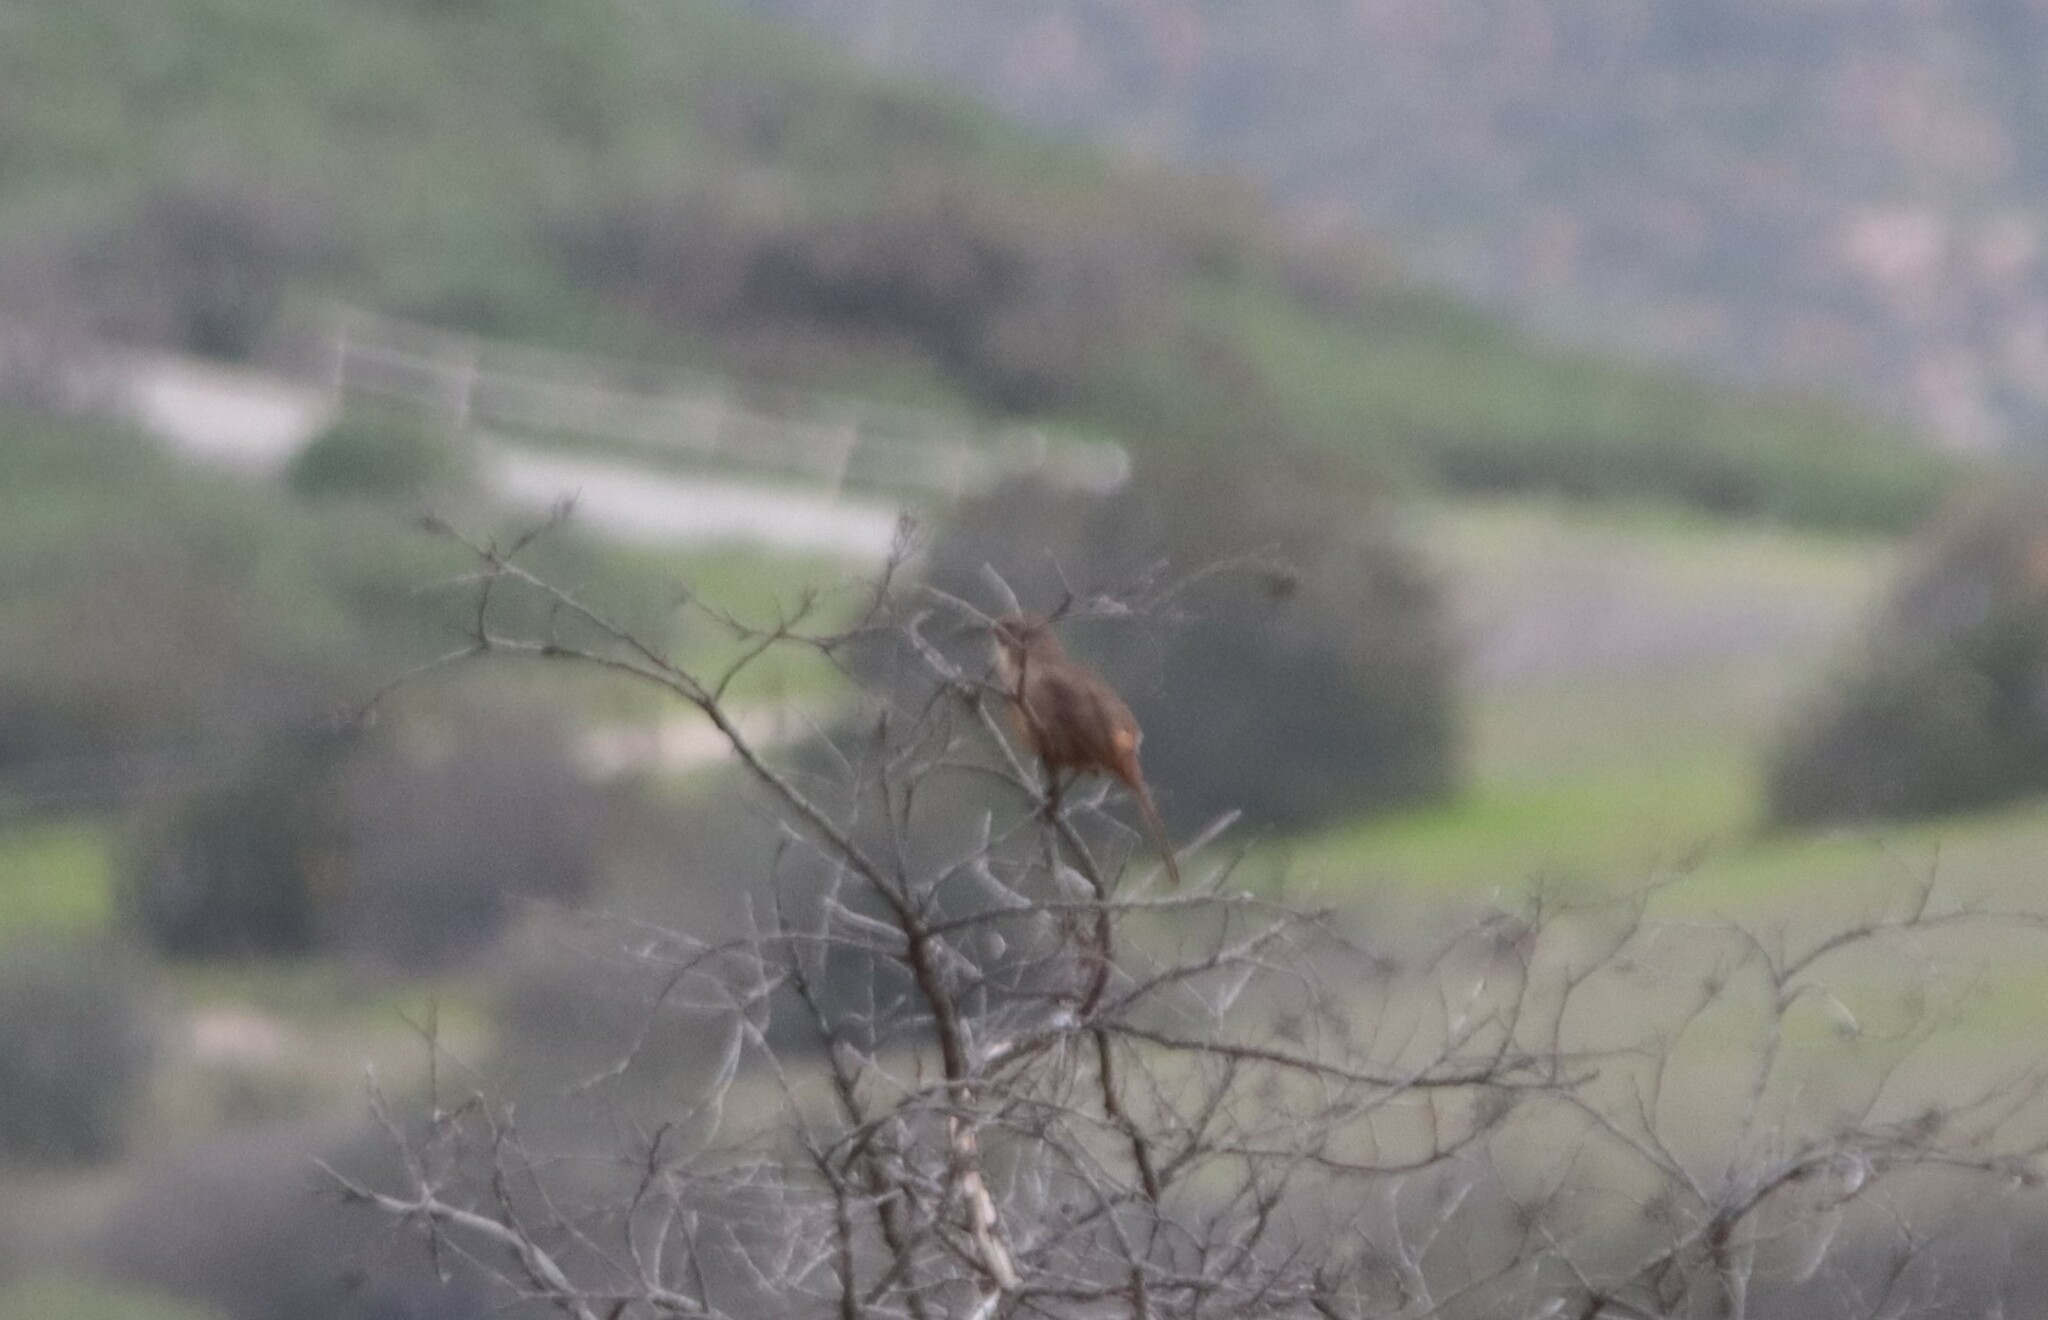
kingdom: Animalia
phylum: Chordata
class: Aves
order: Passeriformes
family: Mimidae
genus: Toxostoma
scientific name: Toxostoma redivivum
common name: California thrasher
